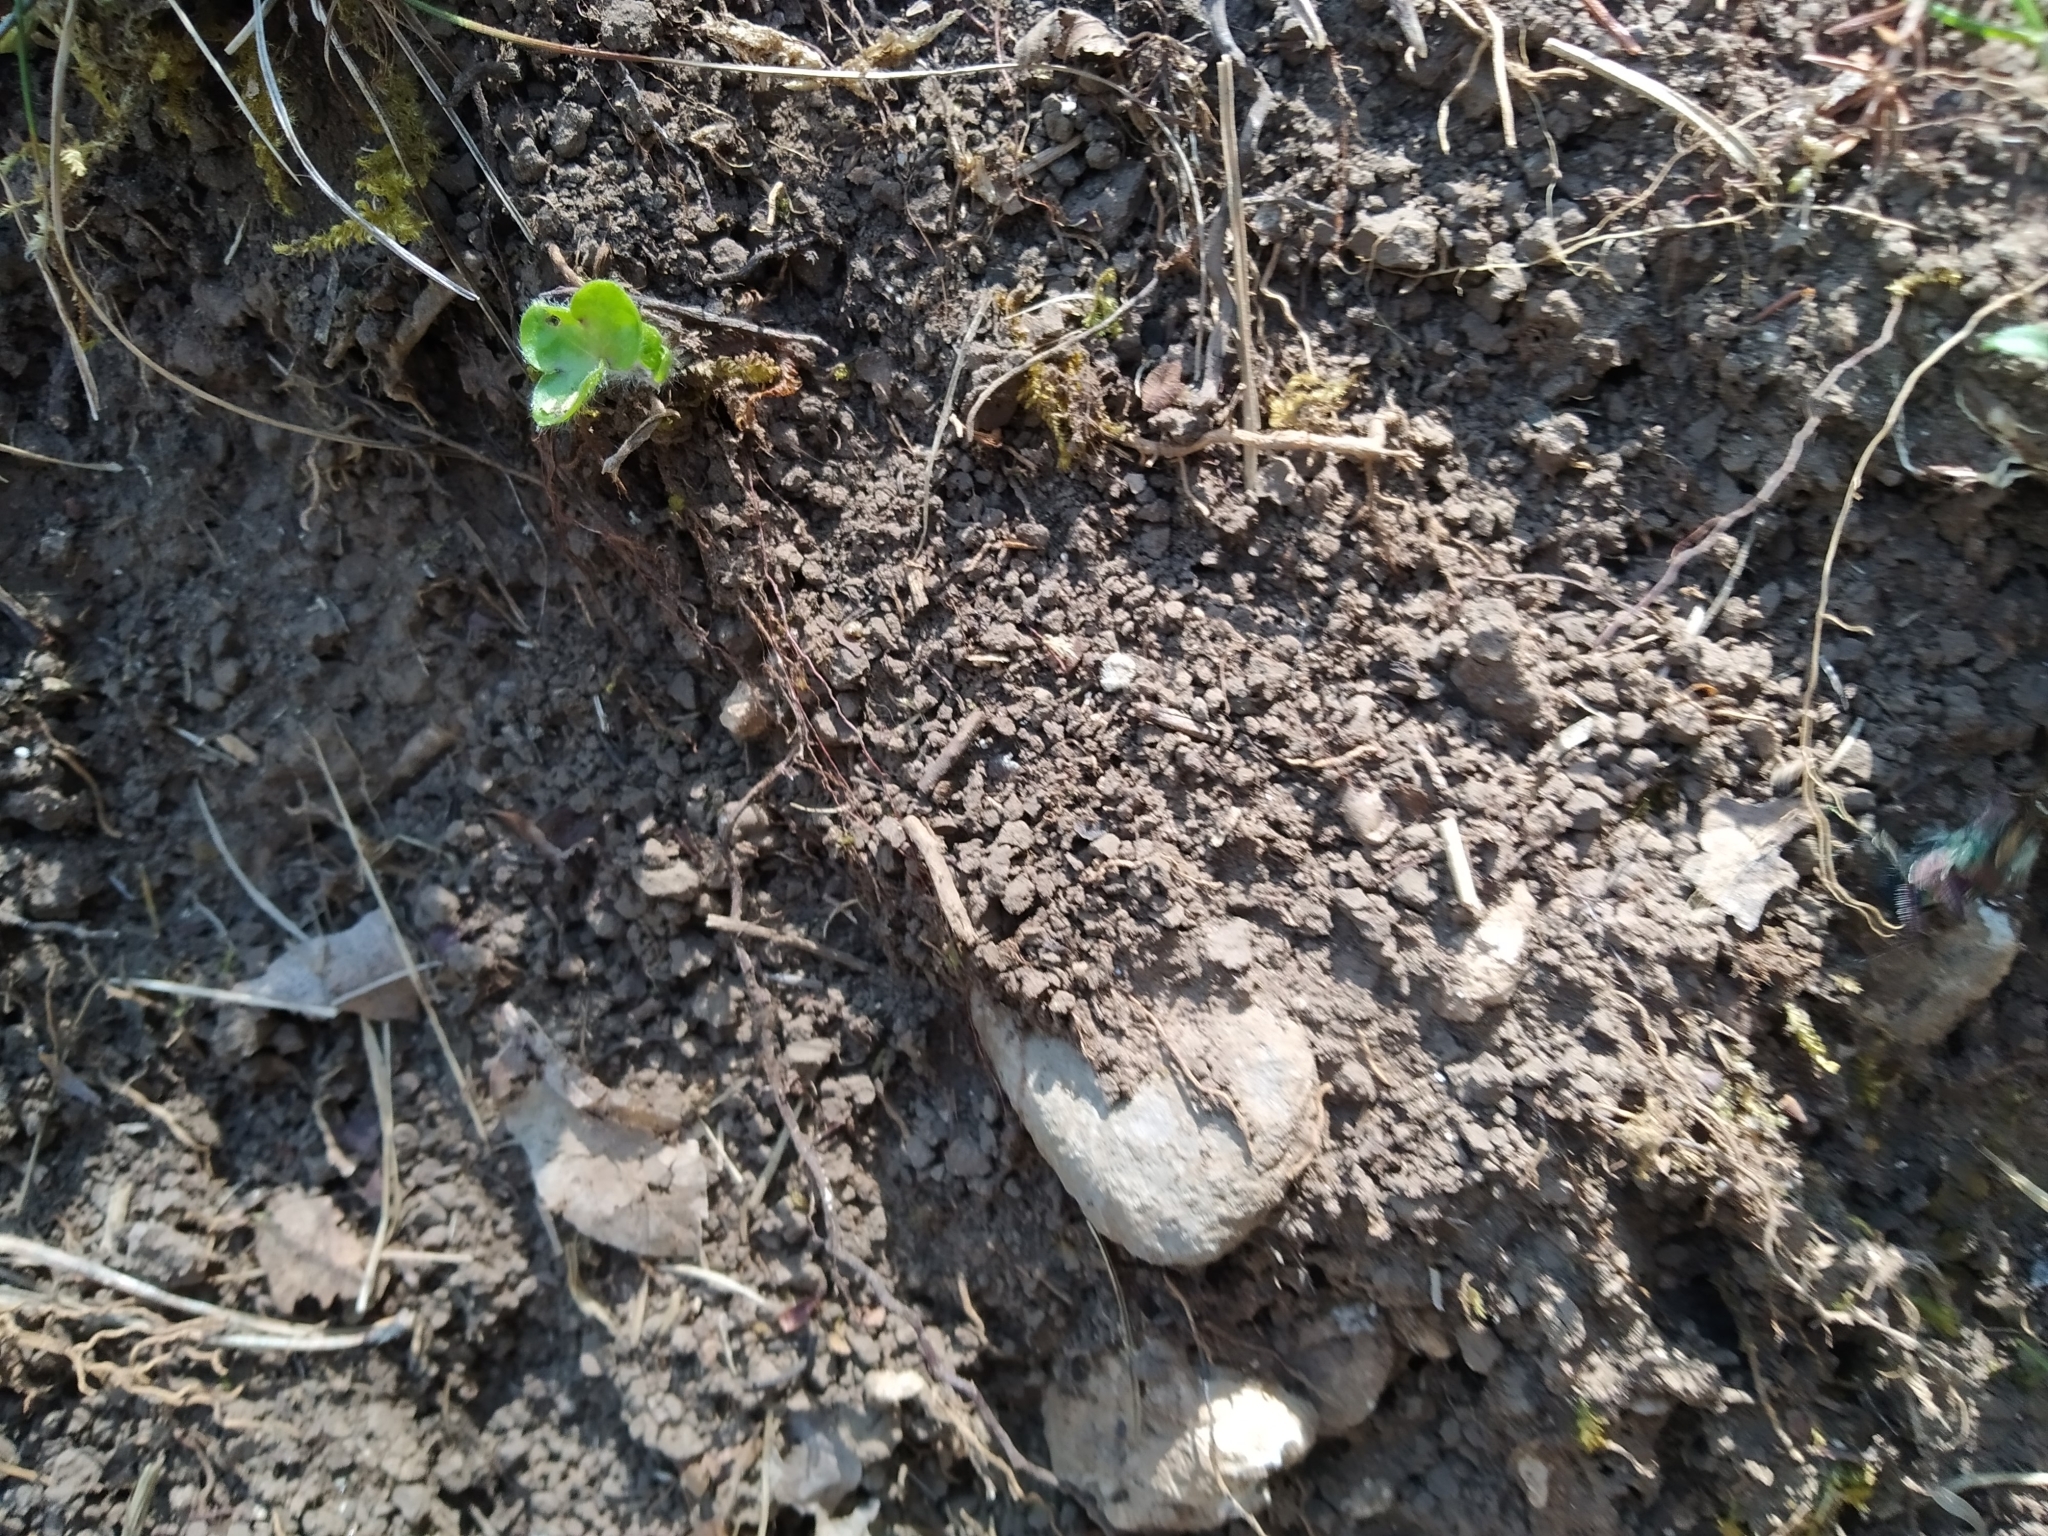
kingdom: Animalia
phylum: Arthropoda
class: Insecta
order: Coleoptera
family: Carabidae
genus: Cicindela
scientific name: Cicindela campestris
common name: Common tiger beetle
